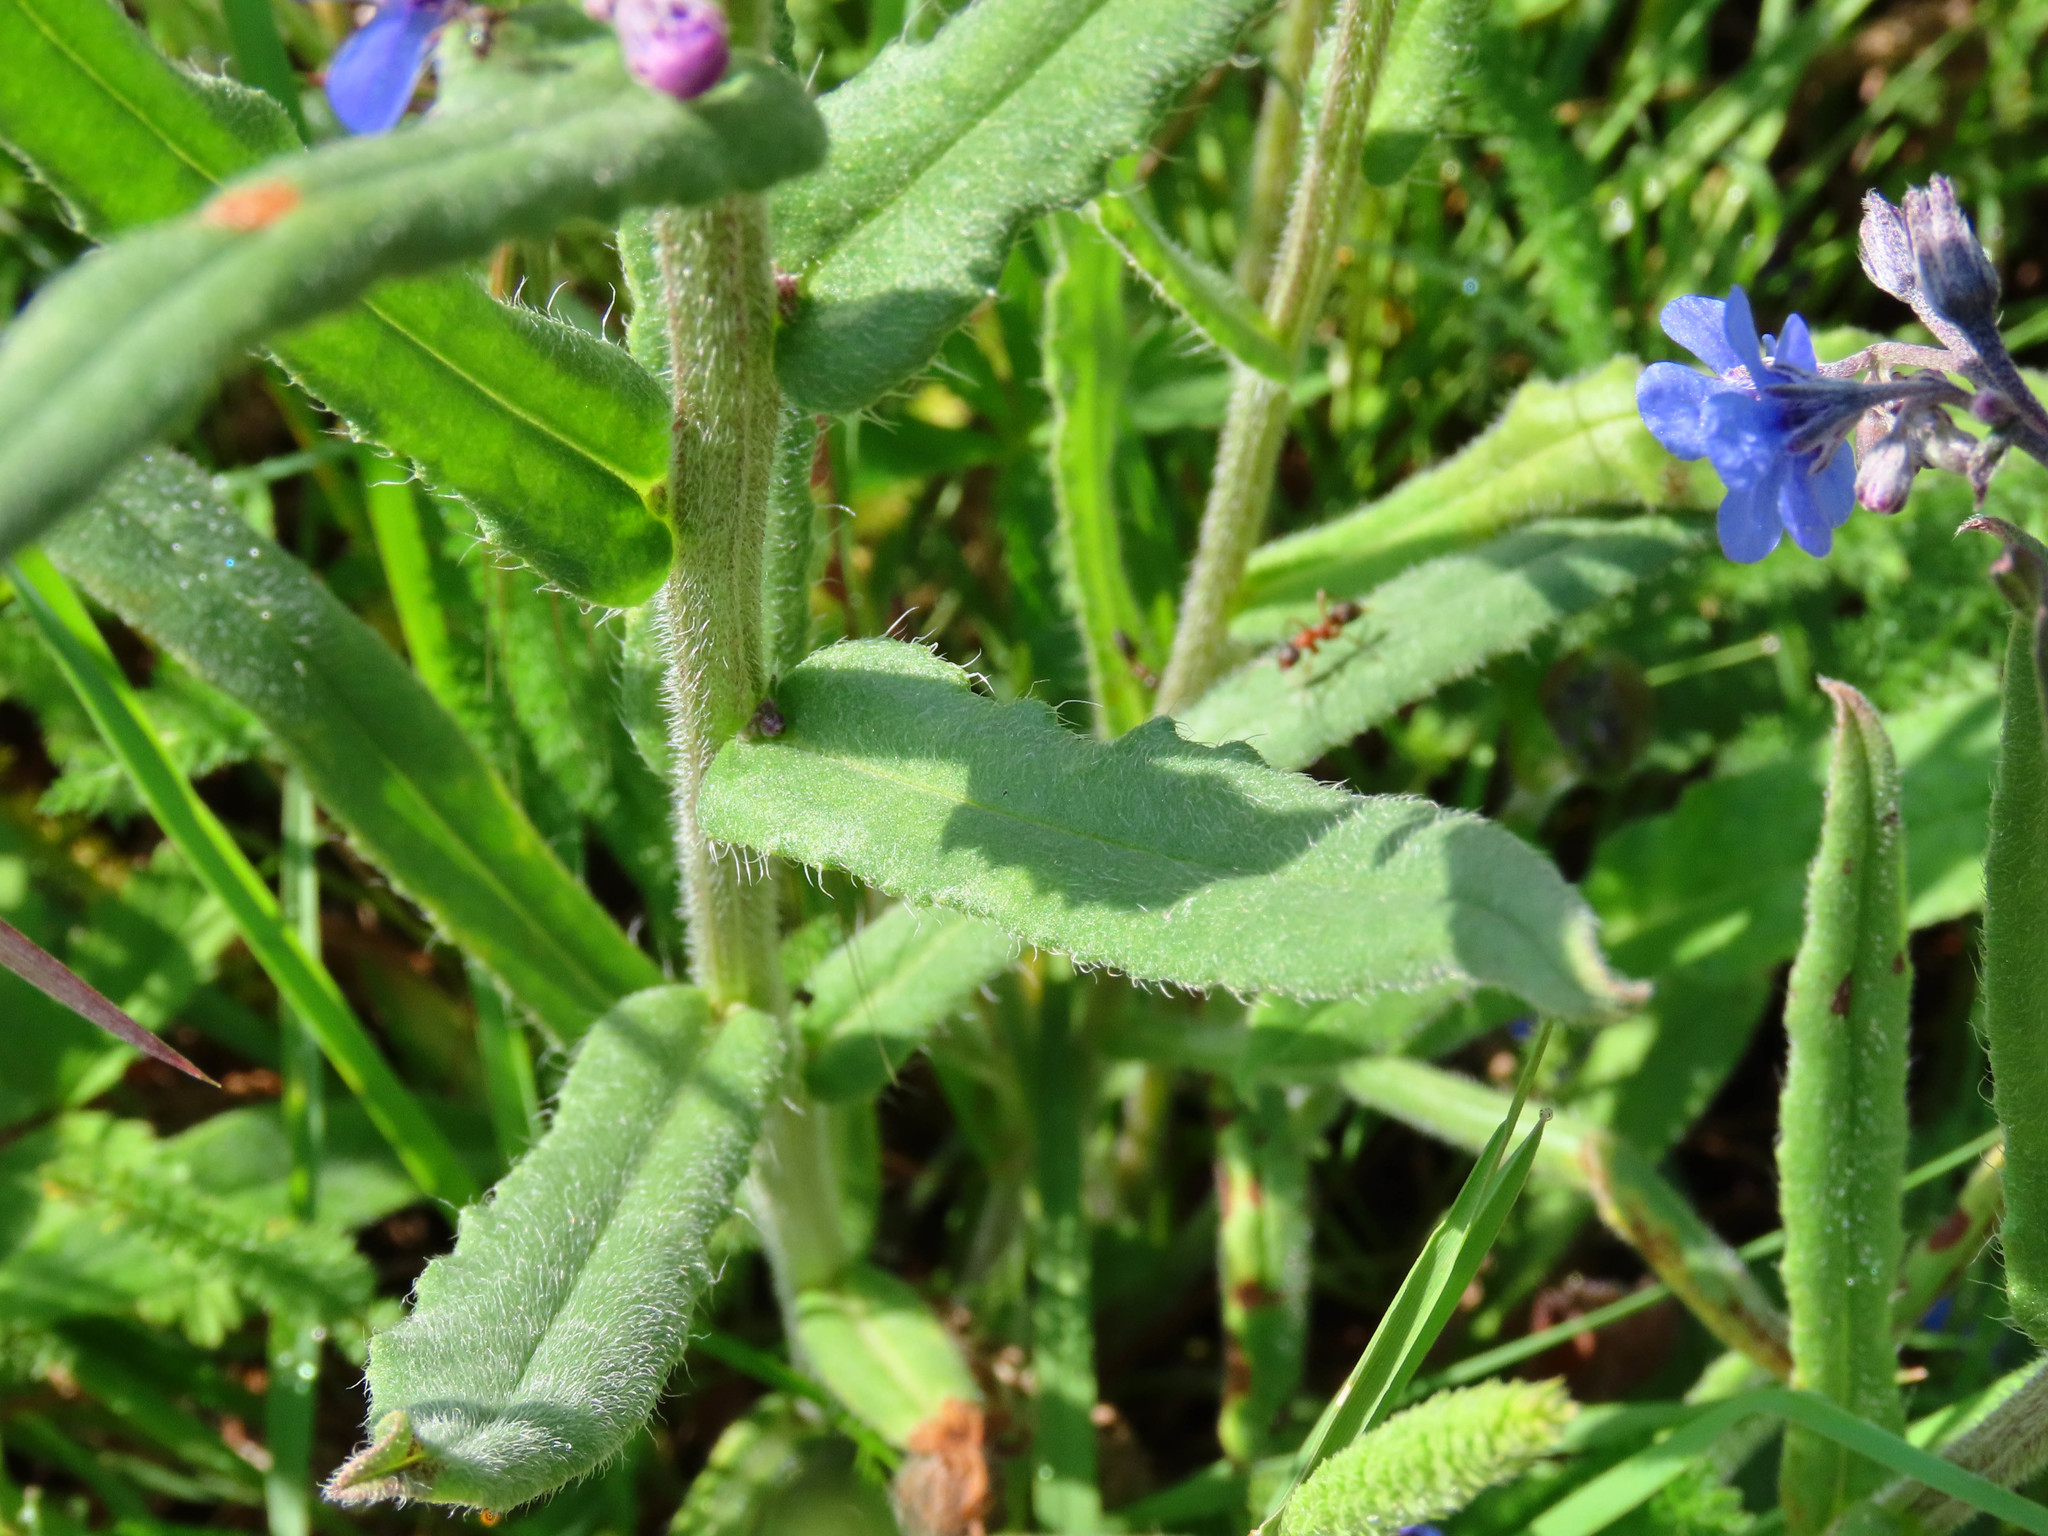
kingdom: Plantae
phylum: Tracheophyta
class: Magnoliopsida
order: Boraginales
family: Boraginaceae
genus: Cynoglottis
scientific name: Cynoglottis barrelieri
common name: False alkanet
